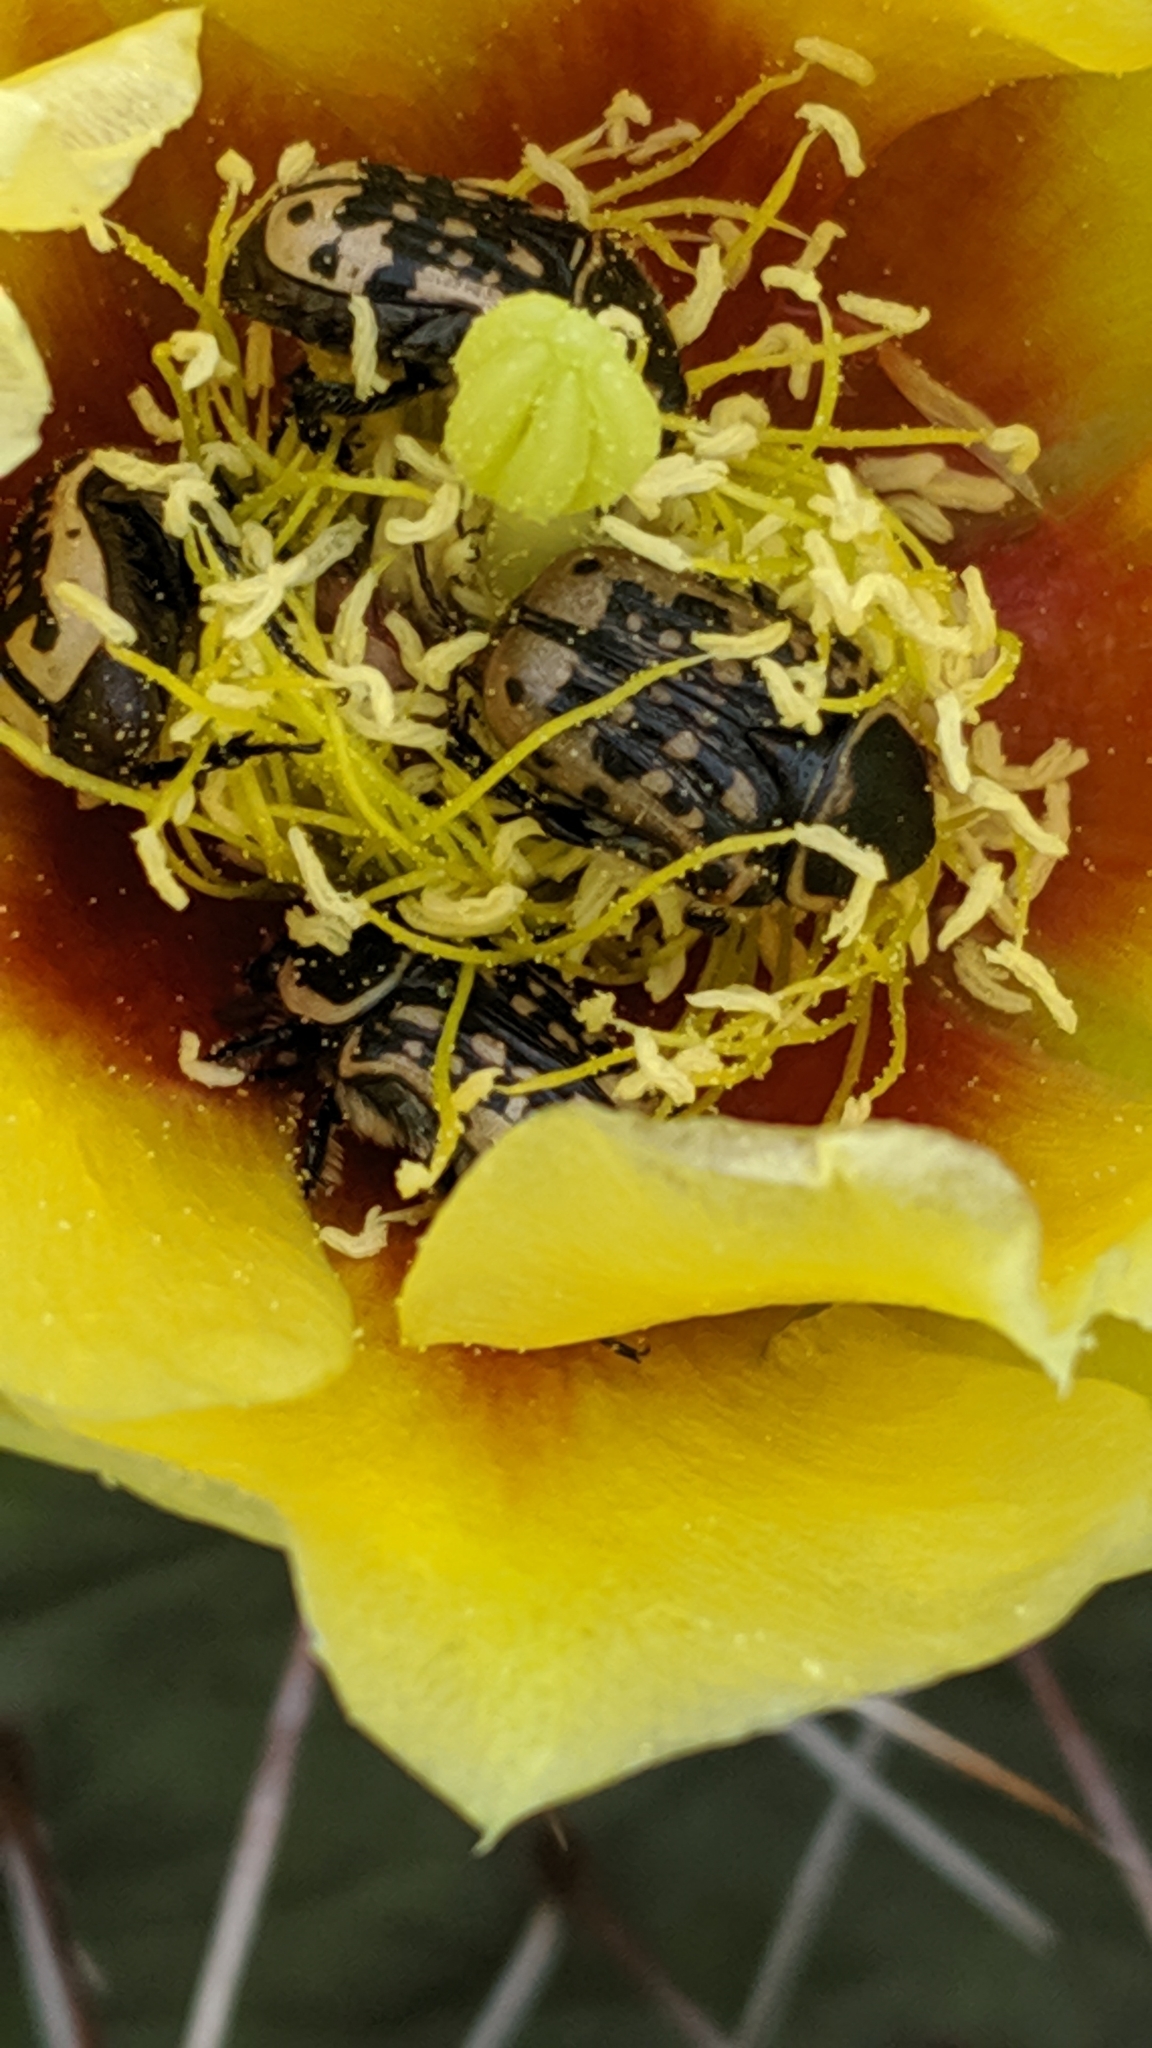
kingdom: Animalia
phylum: Arthropoda
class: Insecta
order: Coleoptera
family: Scarabaeidae
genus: Euphoria
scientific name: Euphoria kernii
